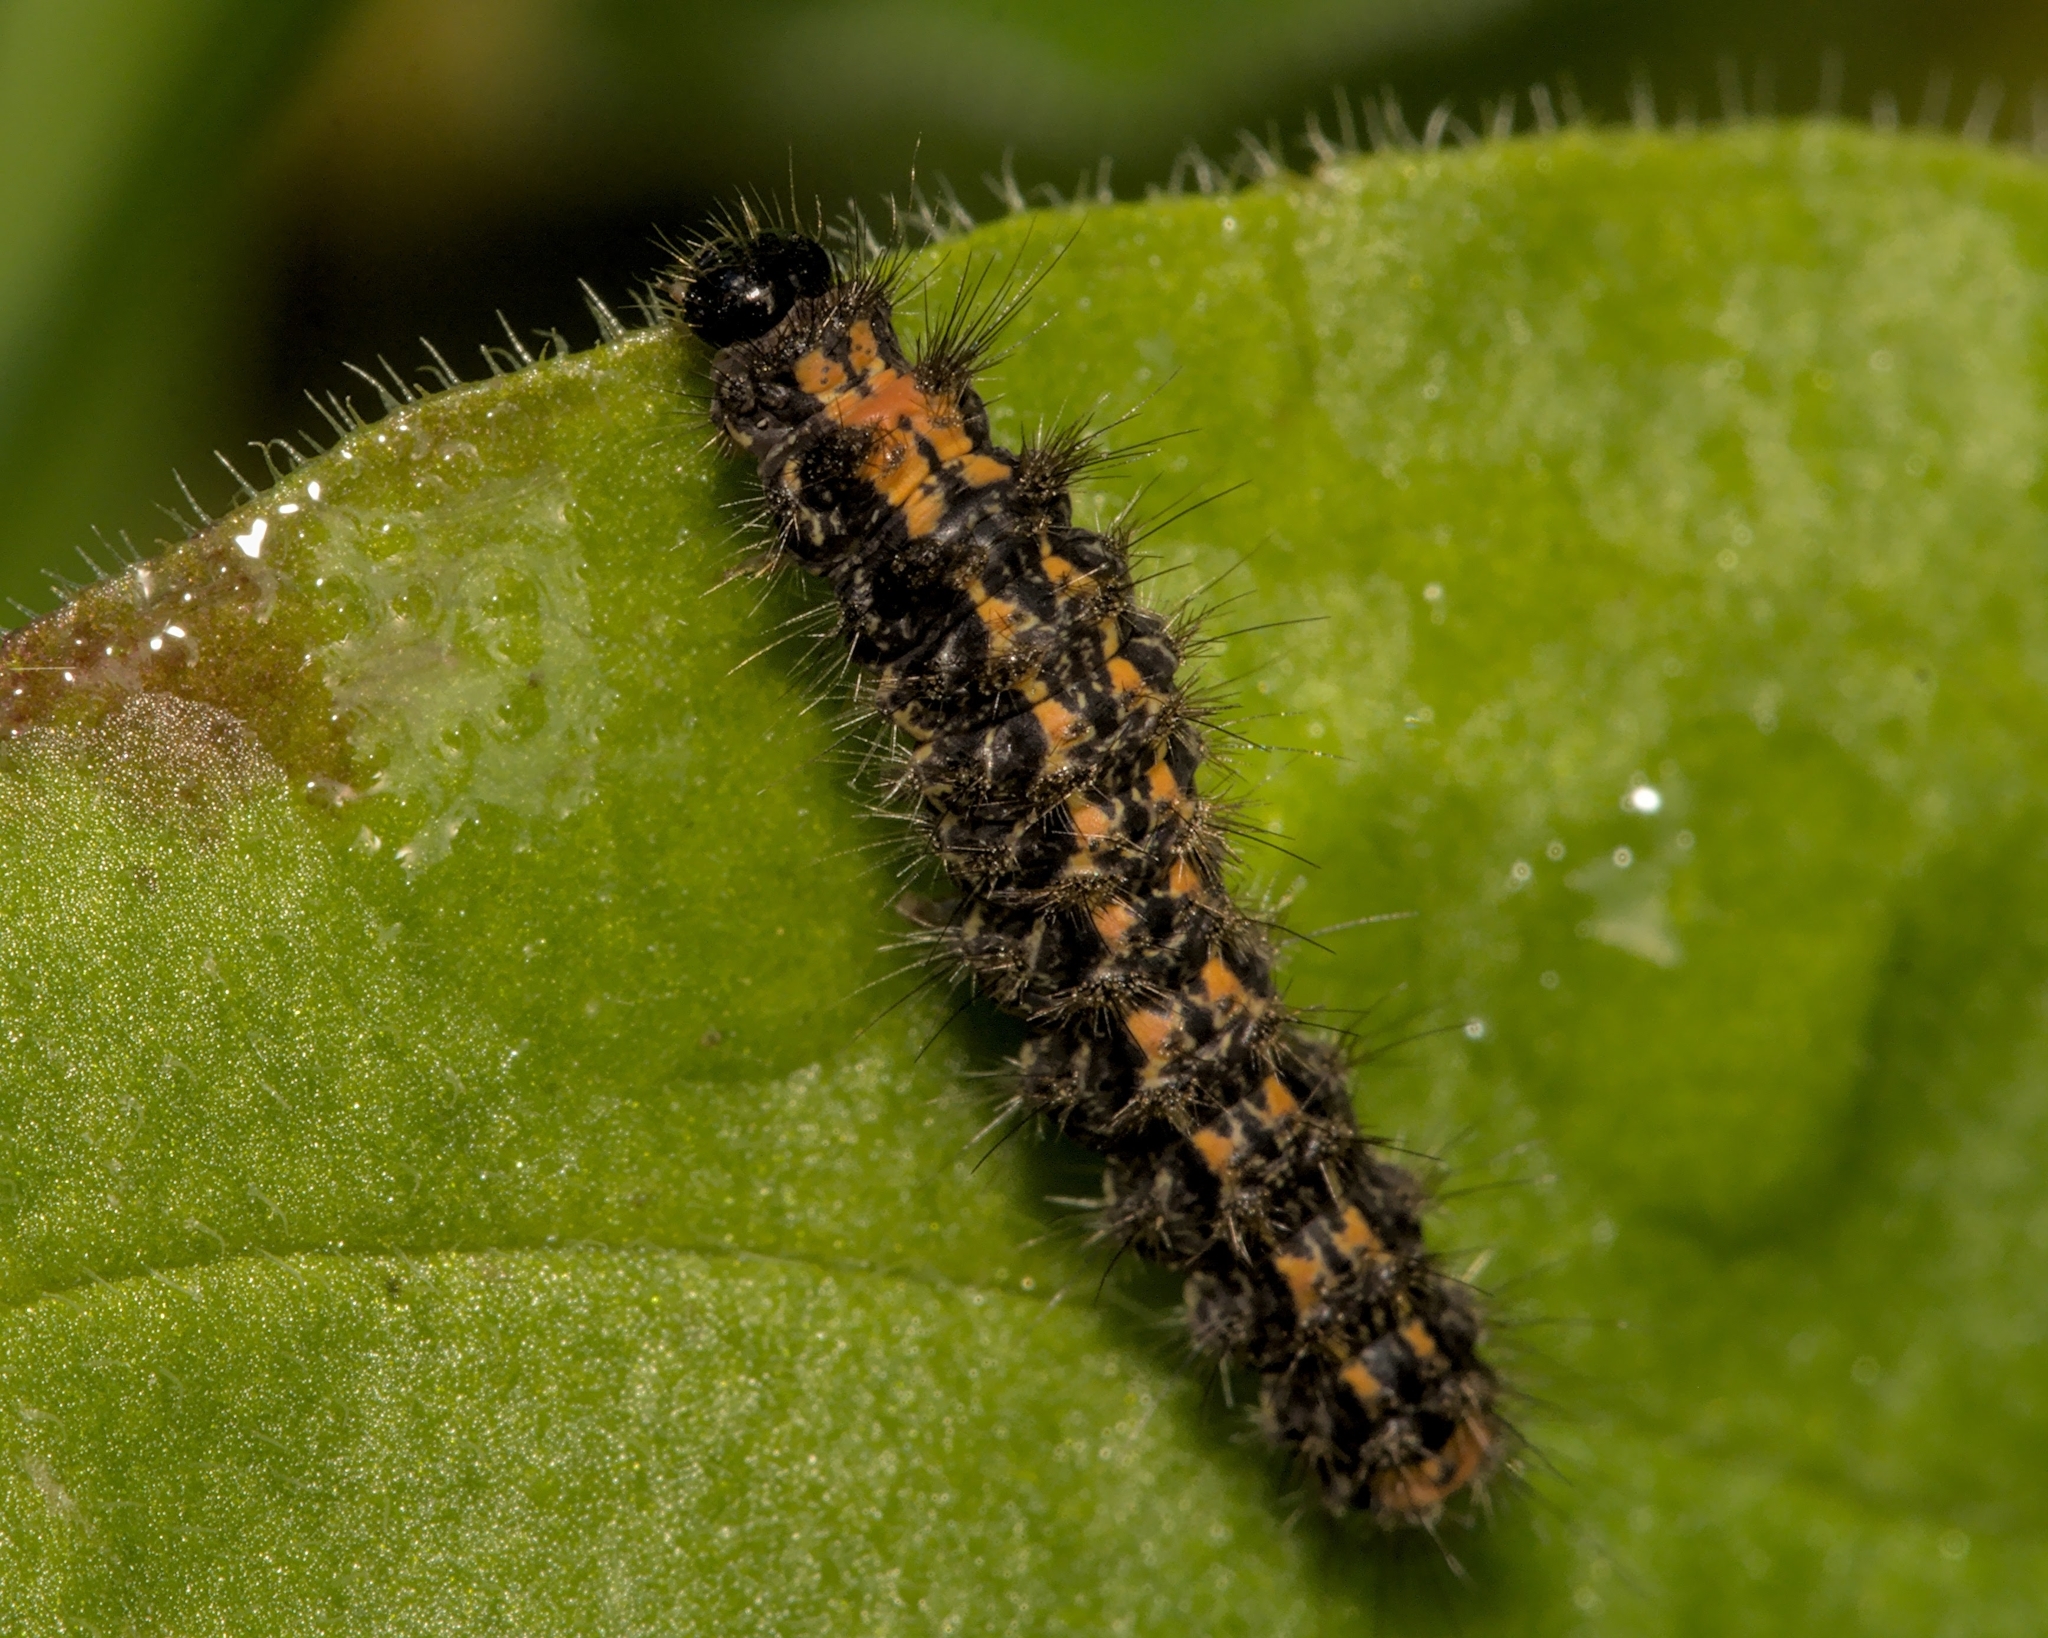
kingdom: Animalia
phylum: Arthropoda
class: Insecta
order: Lepidoptera
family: Erebidae
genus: Collita
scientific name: Collita griseola
